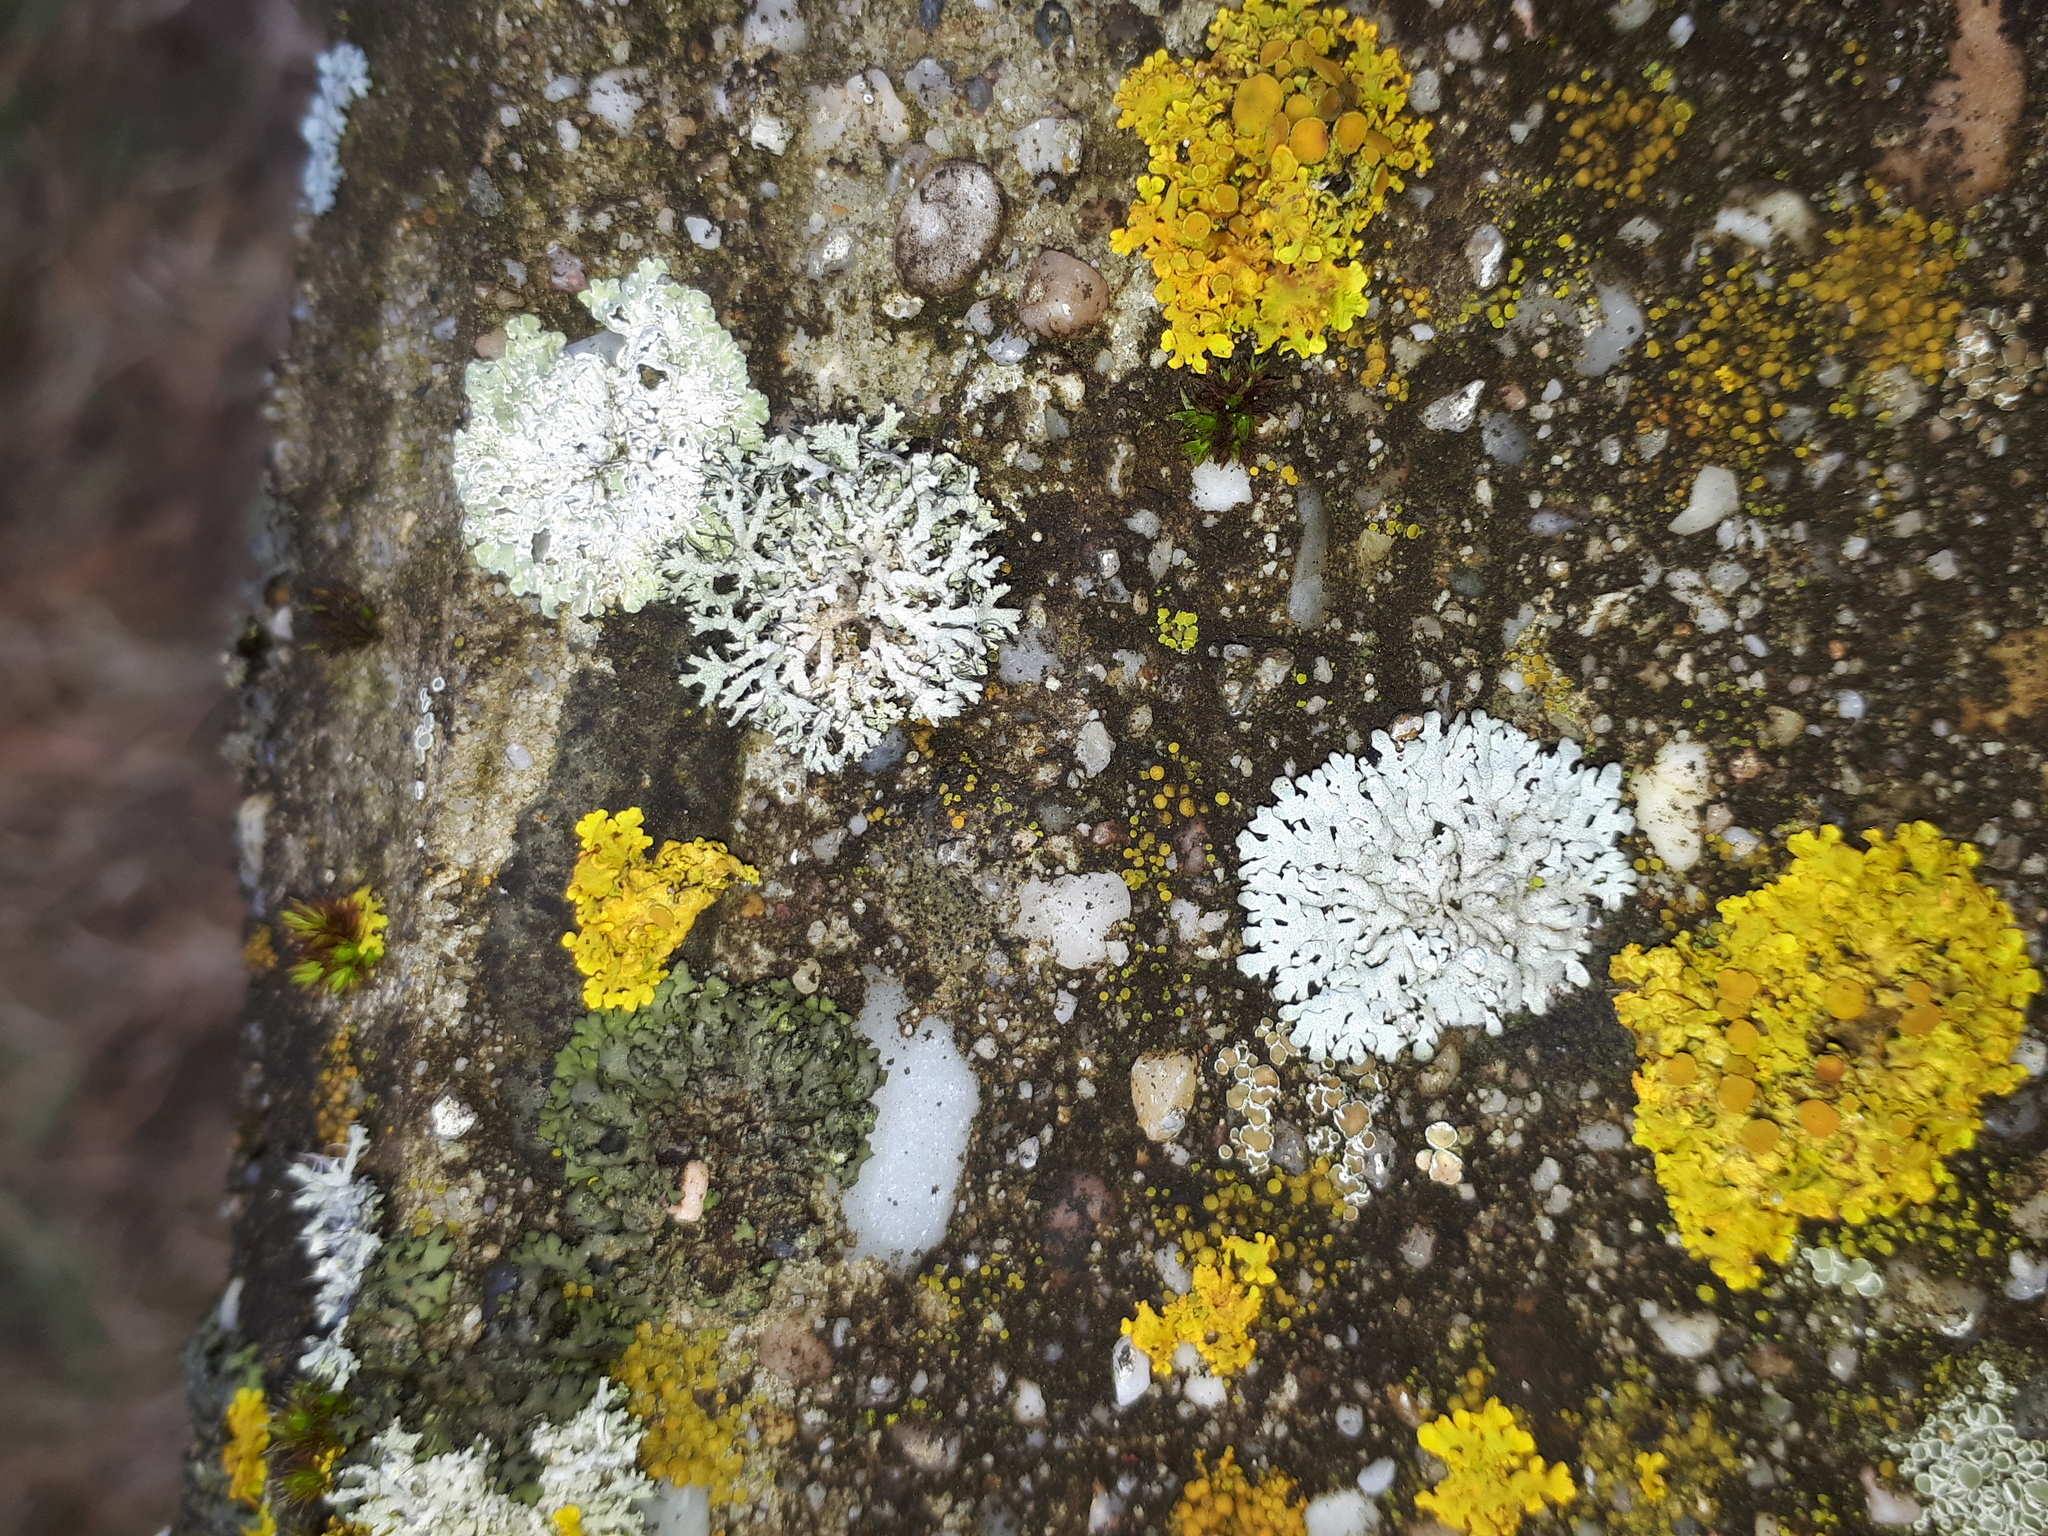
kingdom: Fungi
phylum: Ascomycota
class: Lecanoromycetes
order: Teloschistales
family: Teloschistaceae
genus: Xanthoria
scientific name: Xanthoria parietina
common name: Common orange lichen
